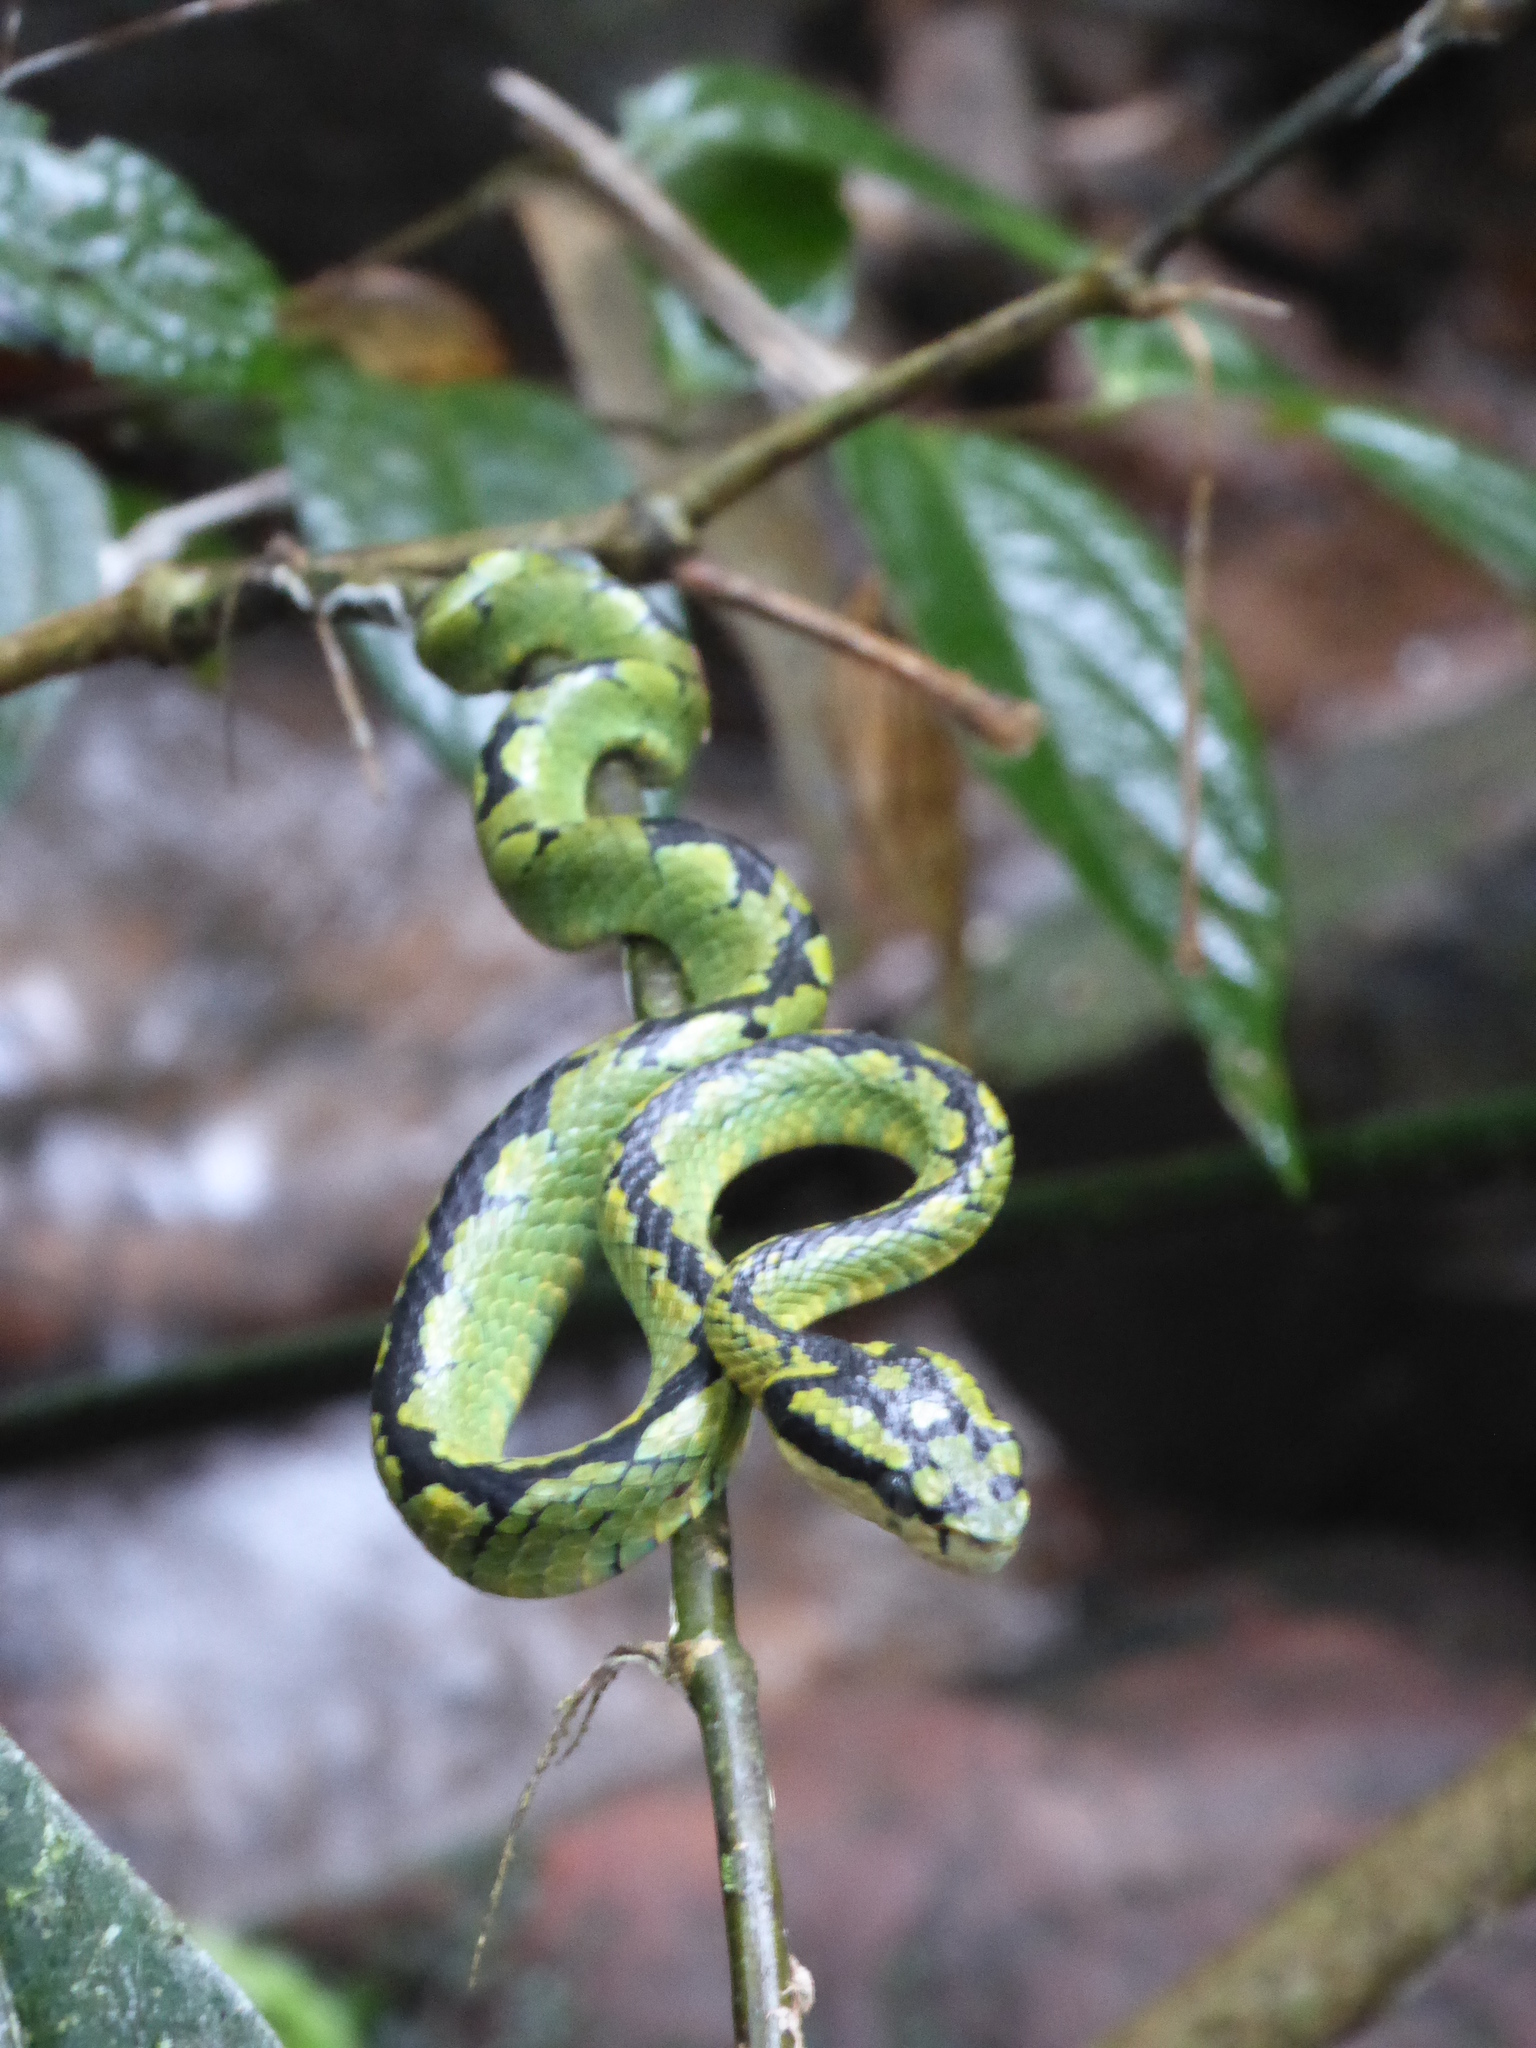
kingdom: Animalia
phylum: Chordata
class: Squamata
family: Viperidae
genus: Craspedocephalus
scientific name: Craspedocephalus trigonocephalus
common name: Ceylon pit viper
